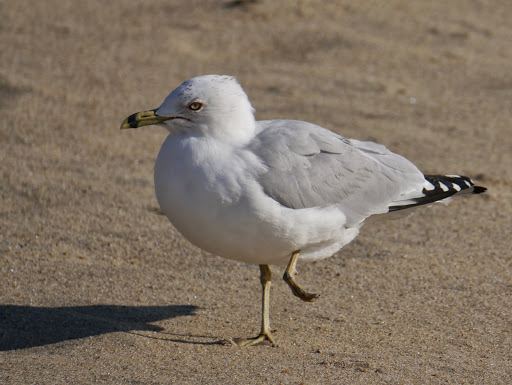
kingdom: Animalia
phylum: Chordata
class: Aves
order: Charadriiformes
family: Laridae
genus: Larus
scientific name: Larus delawarensis
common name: Ring-billed gull
